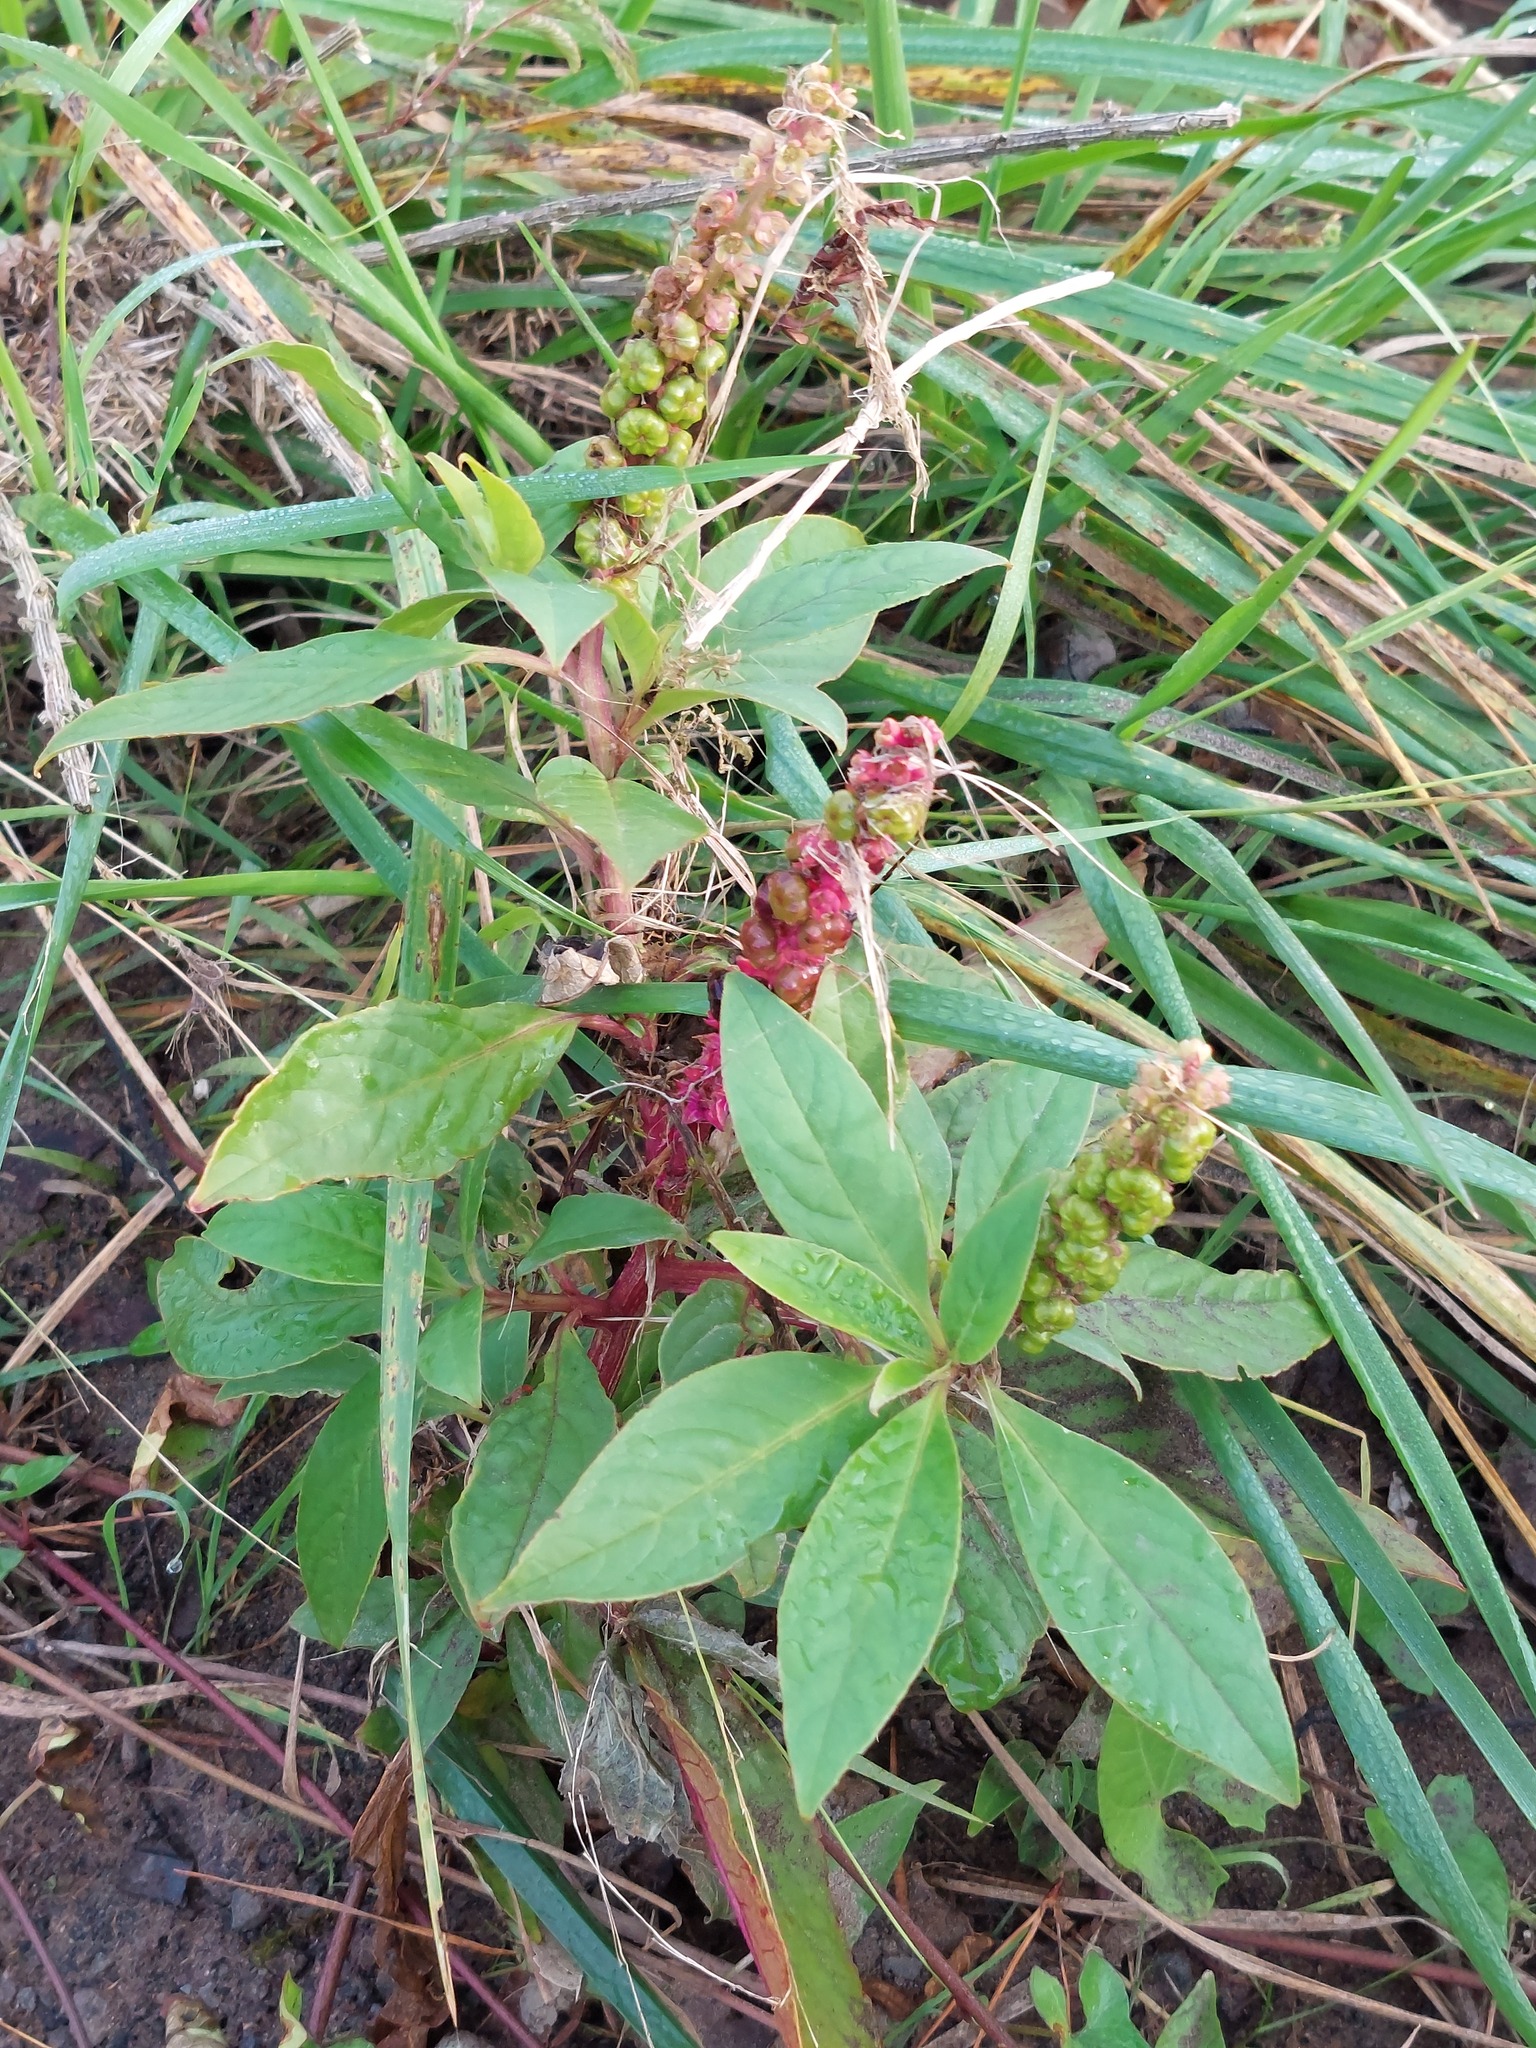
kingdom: Plantae
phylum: Tracheophyta
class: Magnoliopsida
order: Caryophyllales
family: Phytolaccaceae
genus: Phytolacca
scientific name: Phytolacca icosandra
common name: Button pokeweed
